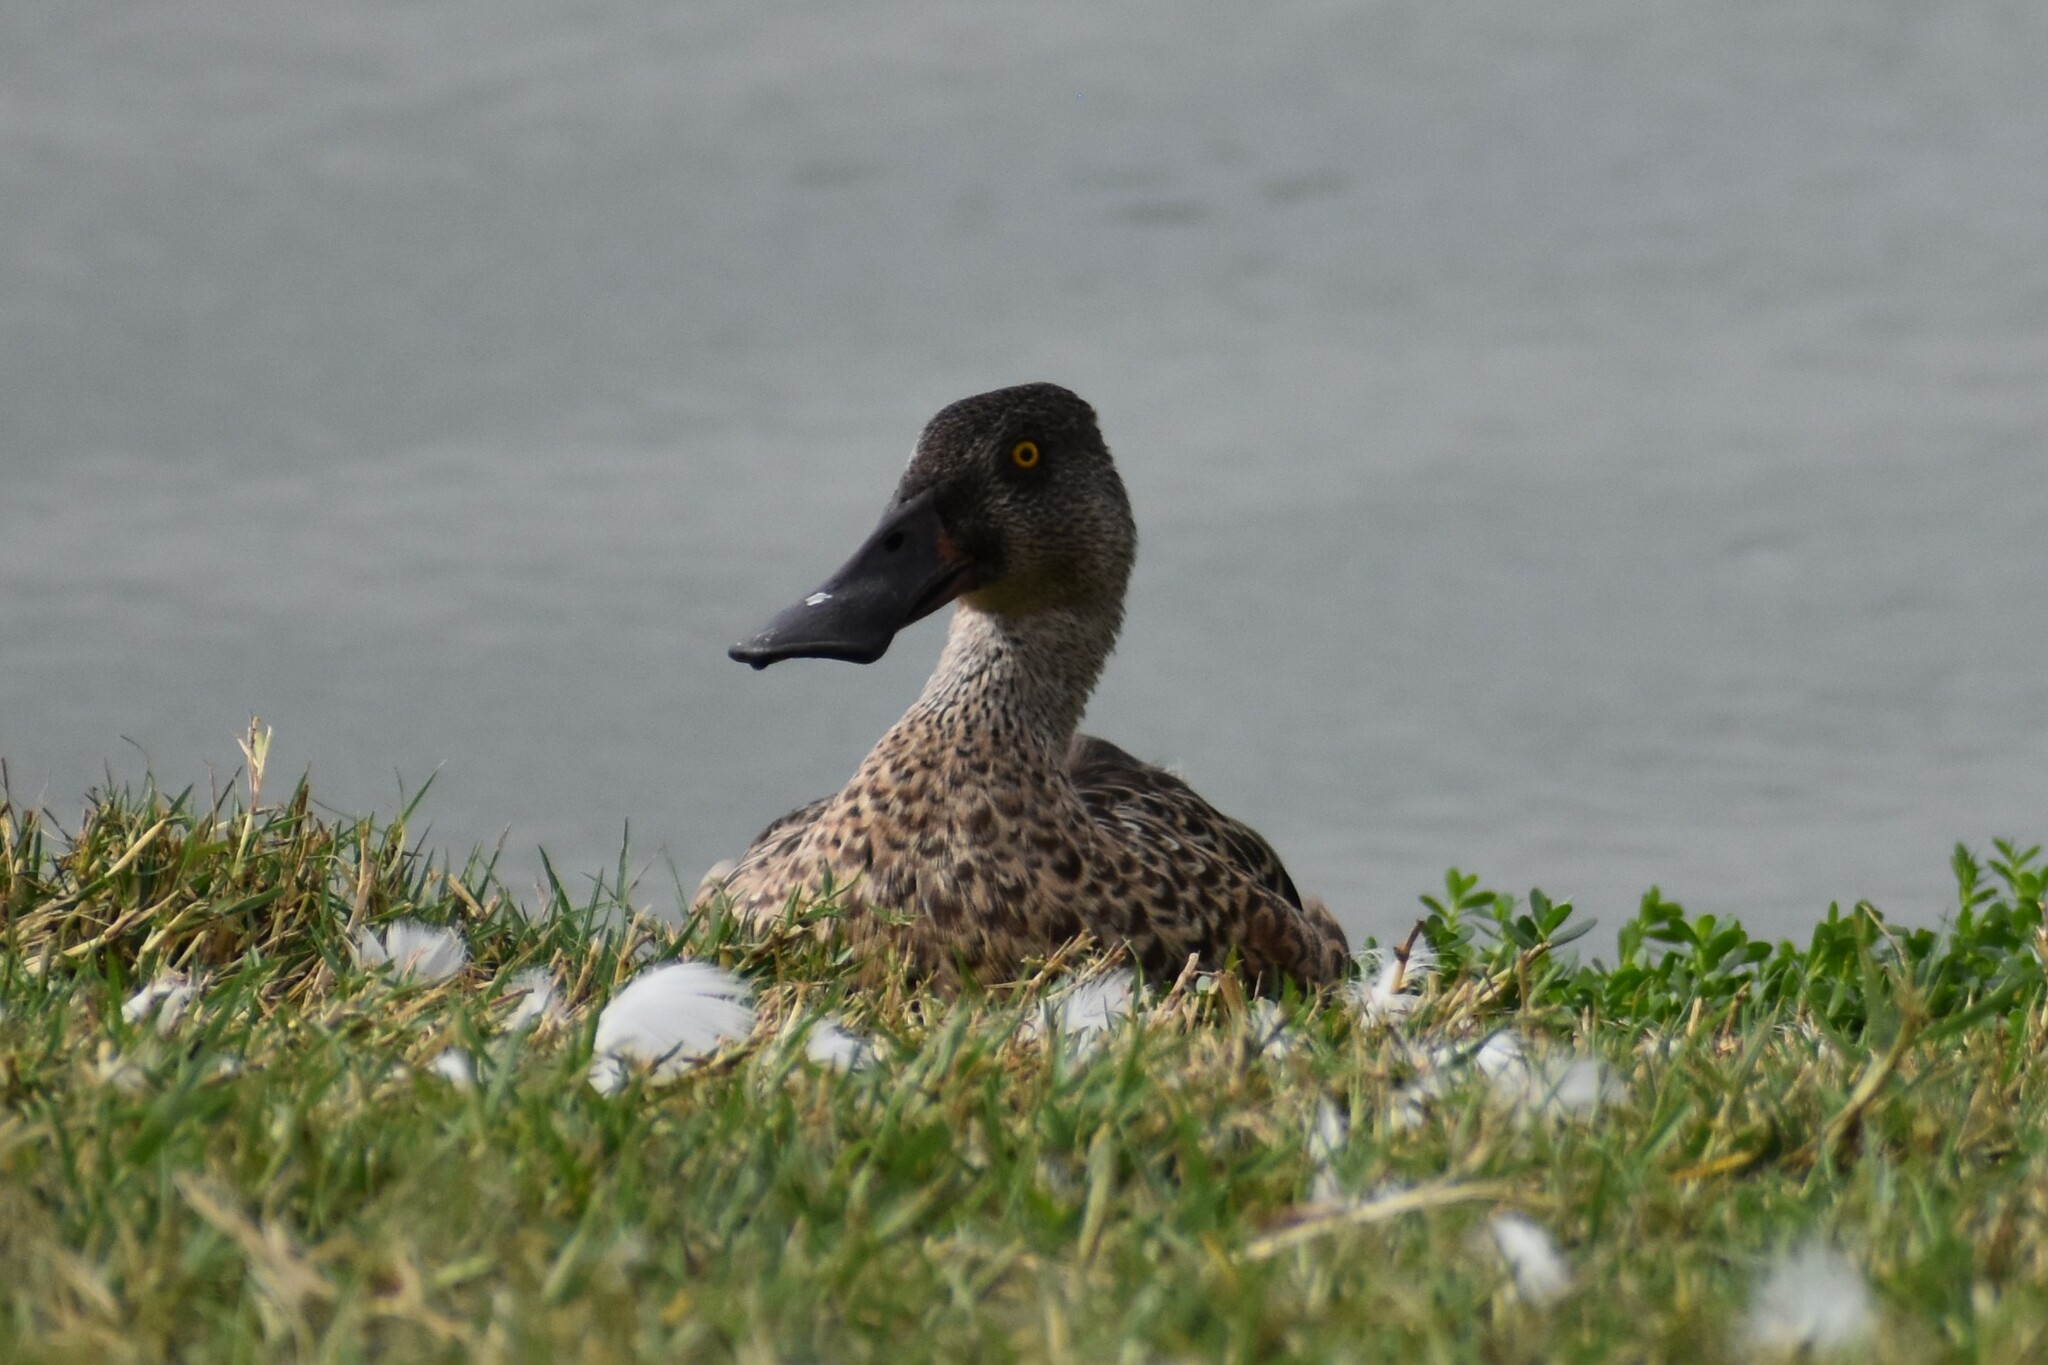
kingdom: Animalia
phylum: Chordata
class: Aves
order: Anseriformes
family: Anatidae
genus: Spatula
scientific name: Spatula clypeata
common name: Northern shoveler
